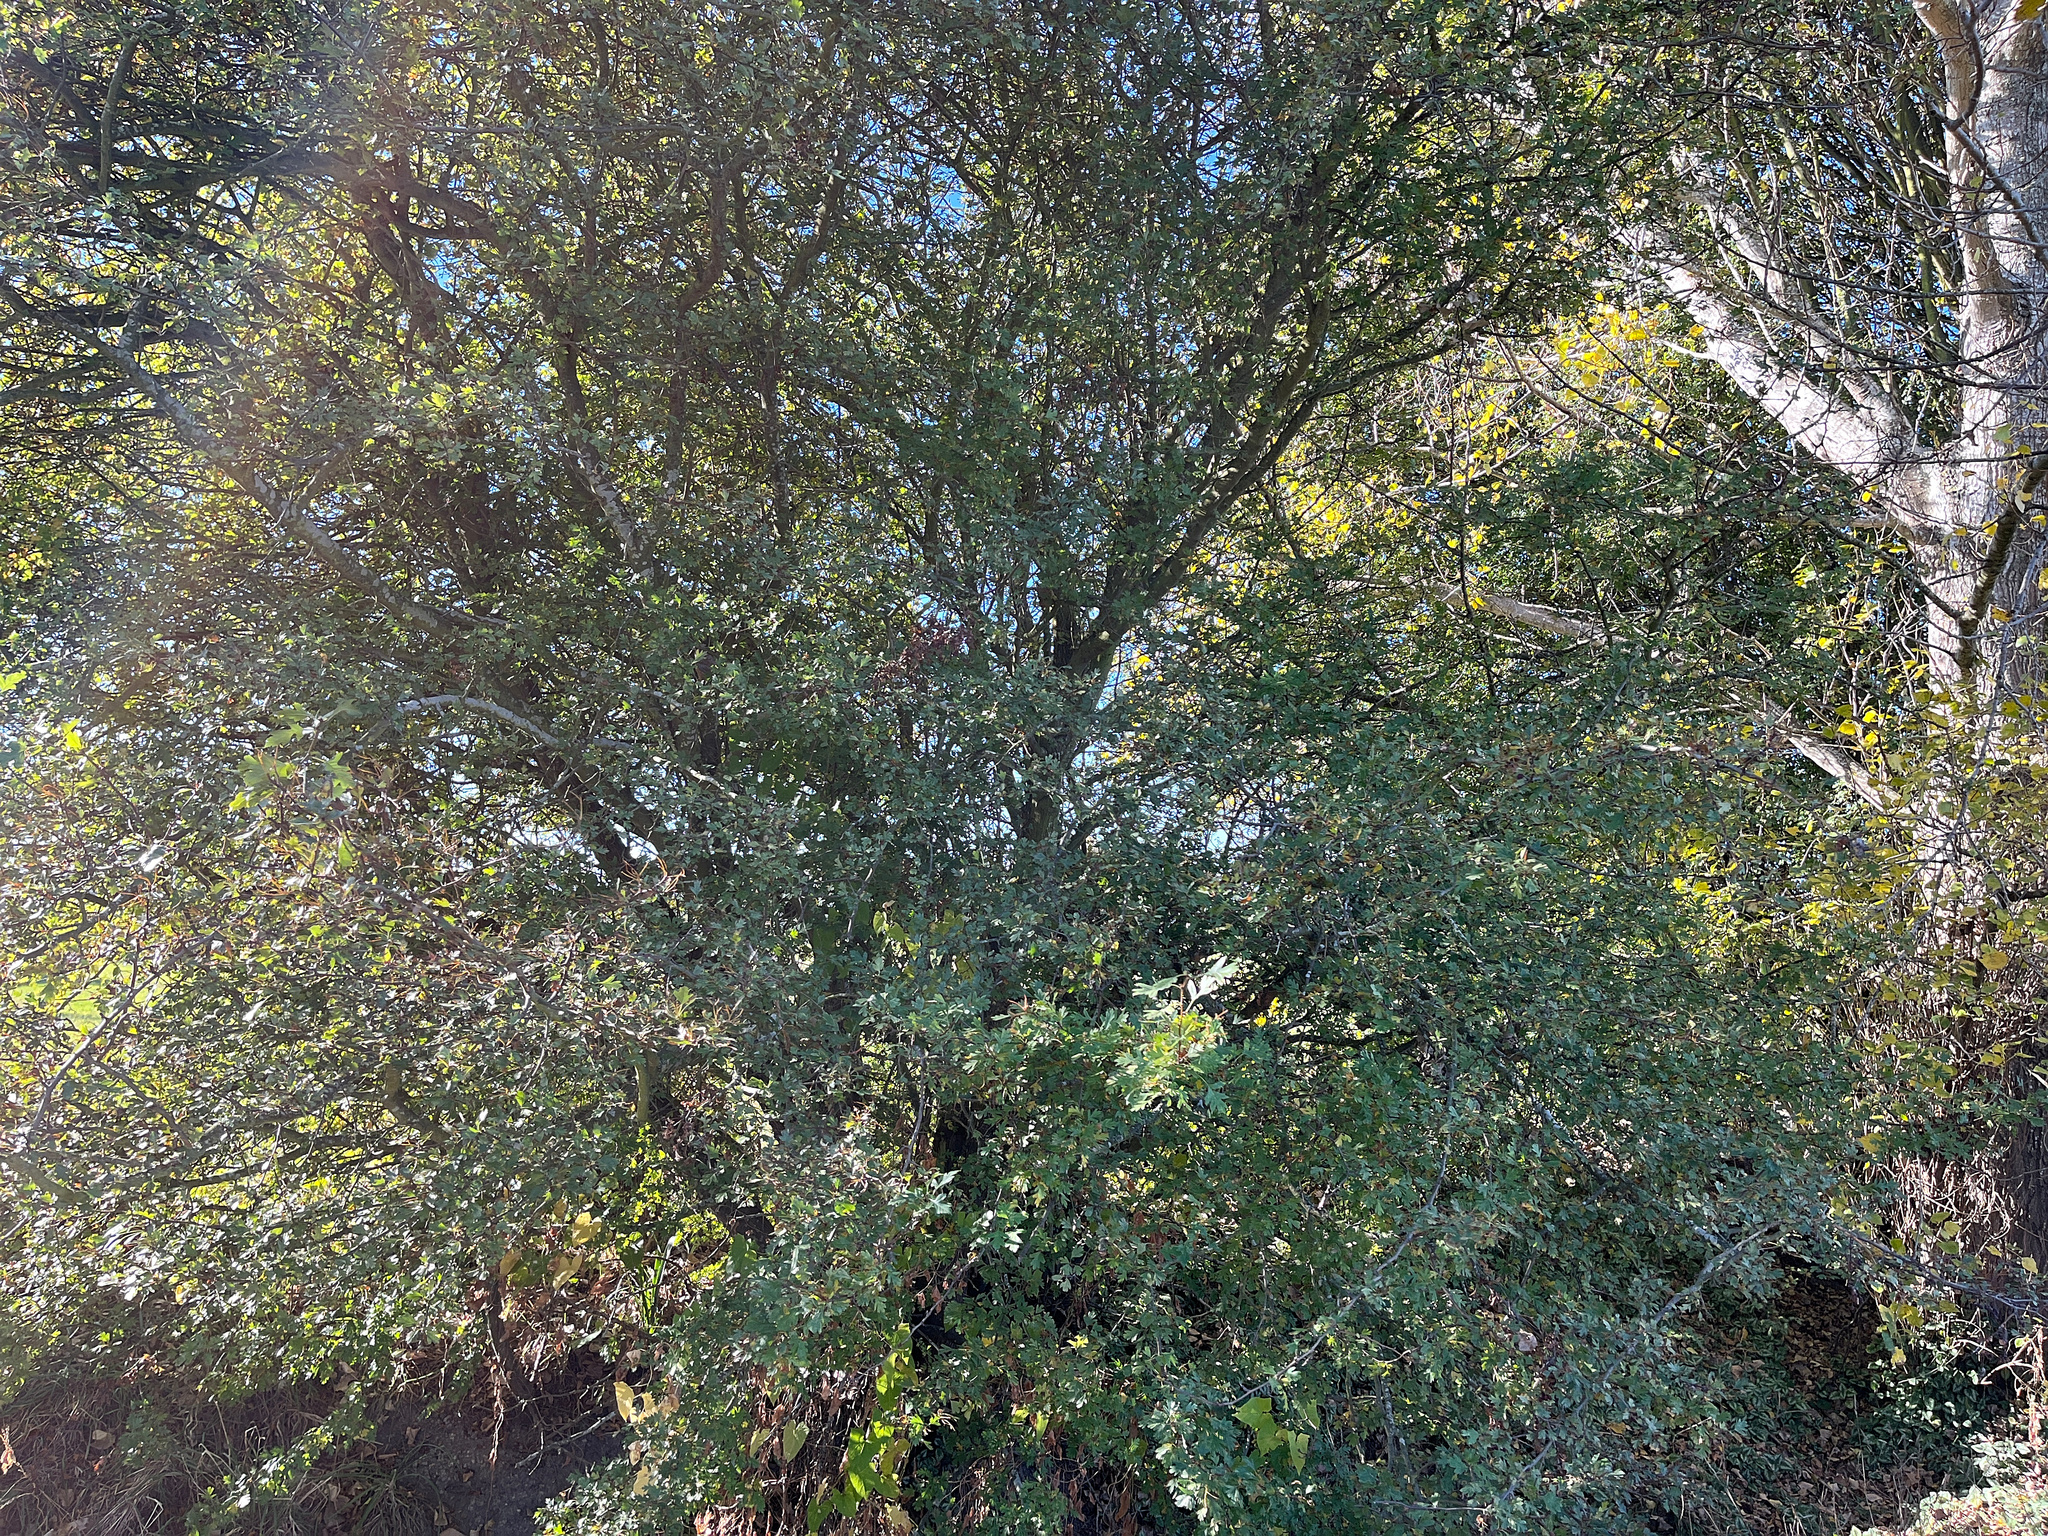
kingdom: Plantae
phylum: Tracheophyta
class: Magnoliopsida
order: Rosales
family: Rosaceae
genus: Crataegus
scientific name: Crataegus monogyna
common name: Hawthorn
